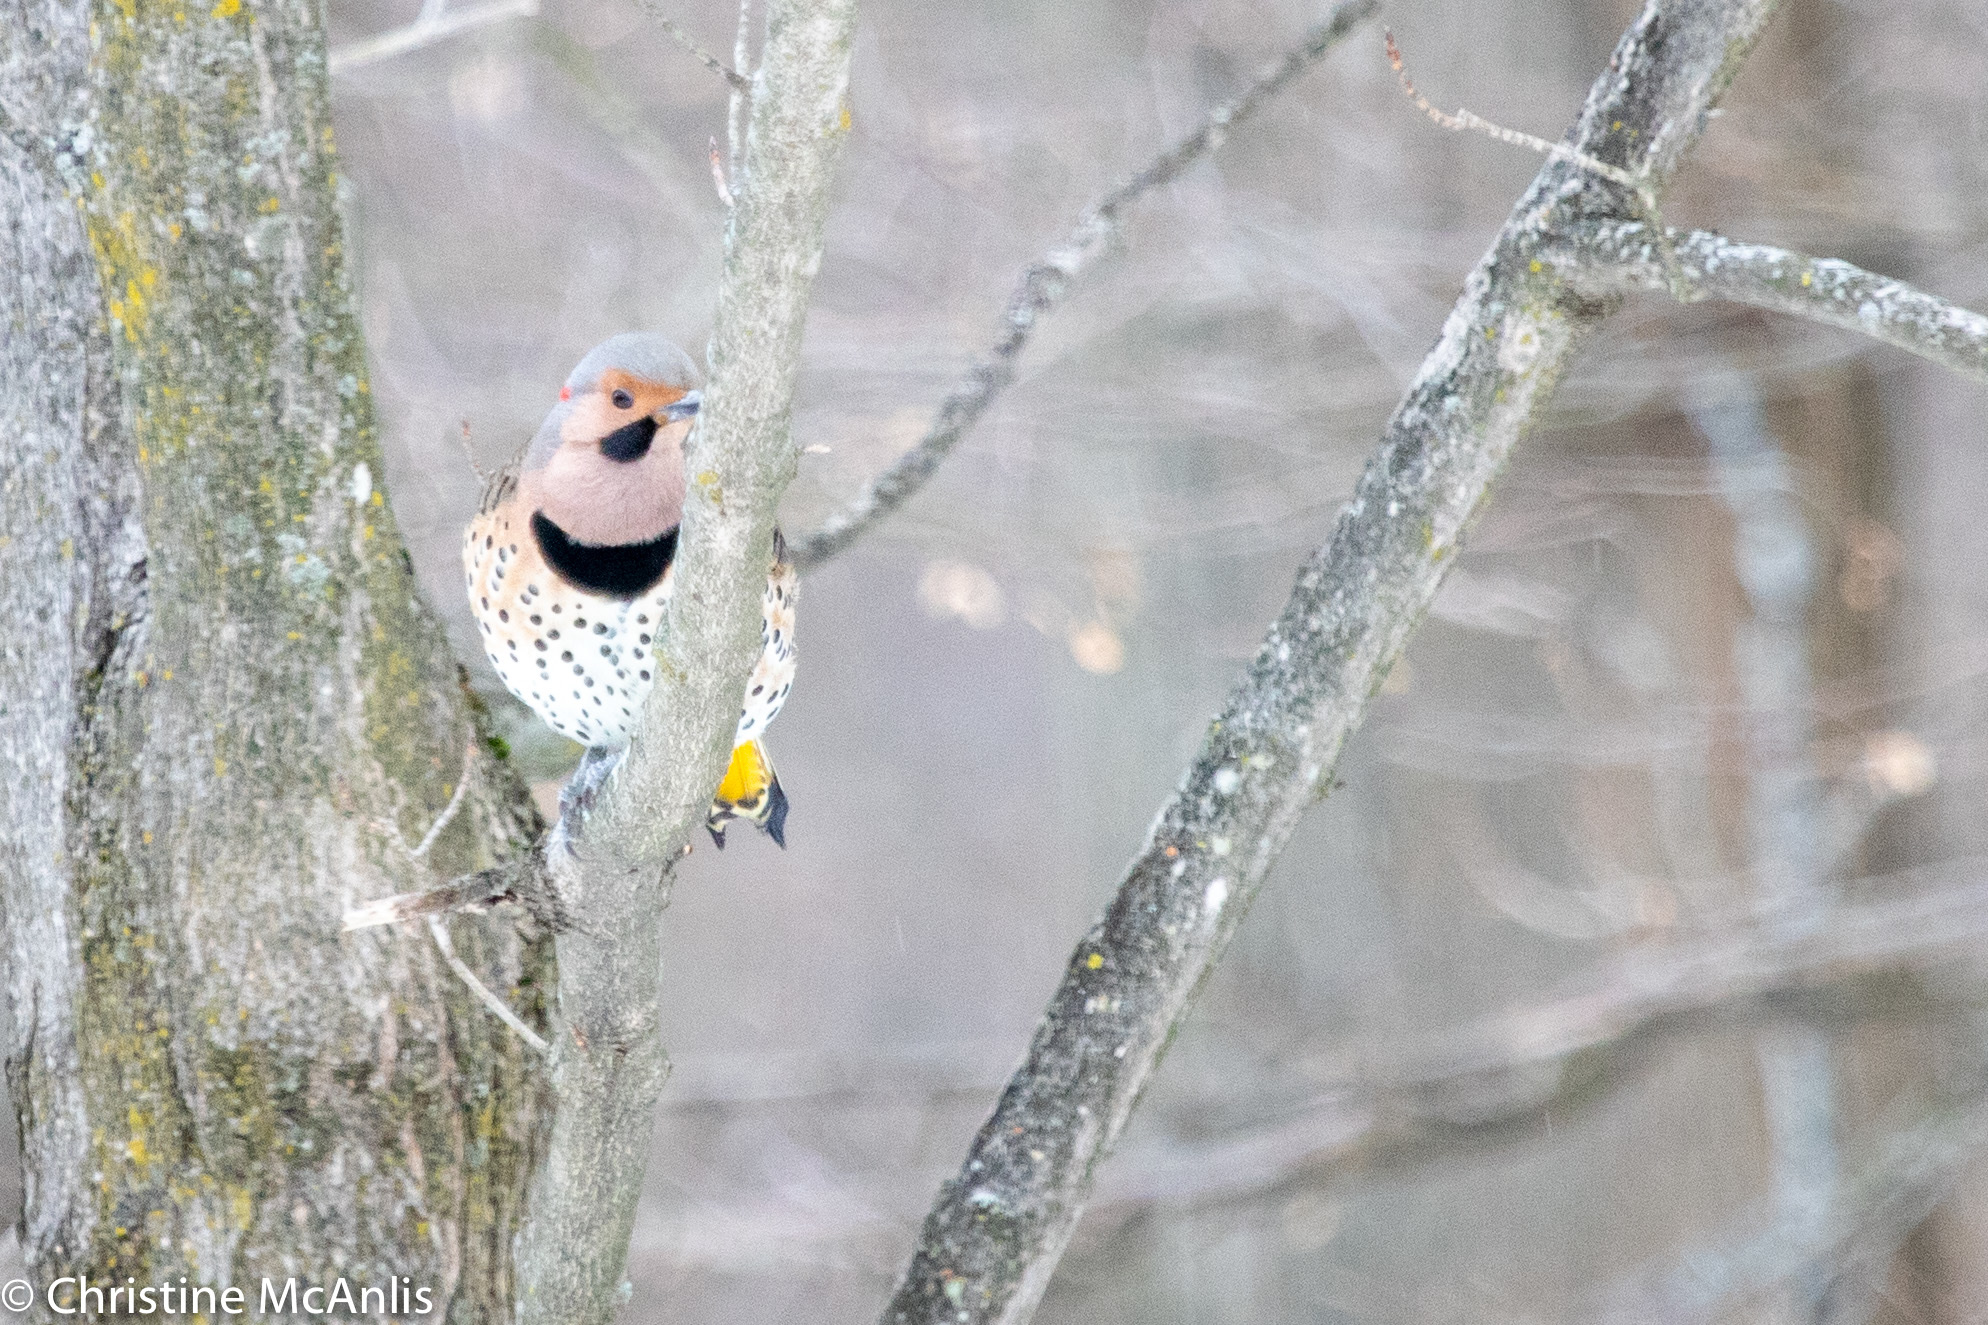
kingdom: Animalia
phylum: Chordata
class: Aves
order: Piciformes
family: Picidae
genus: Colaptes
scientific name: Colaptes auratus
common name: Northern flicker
